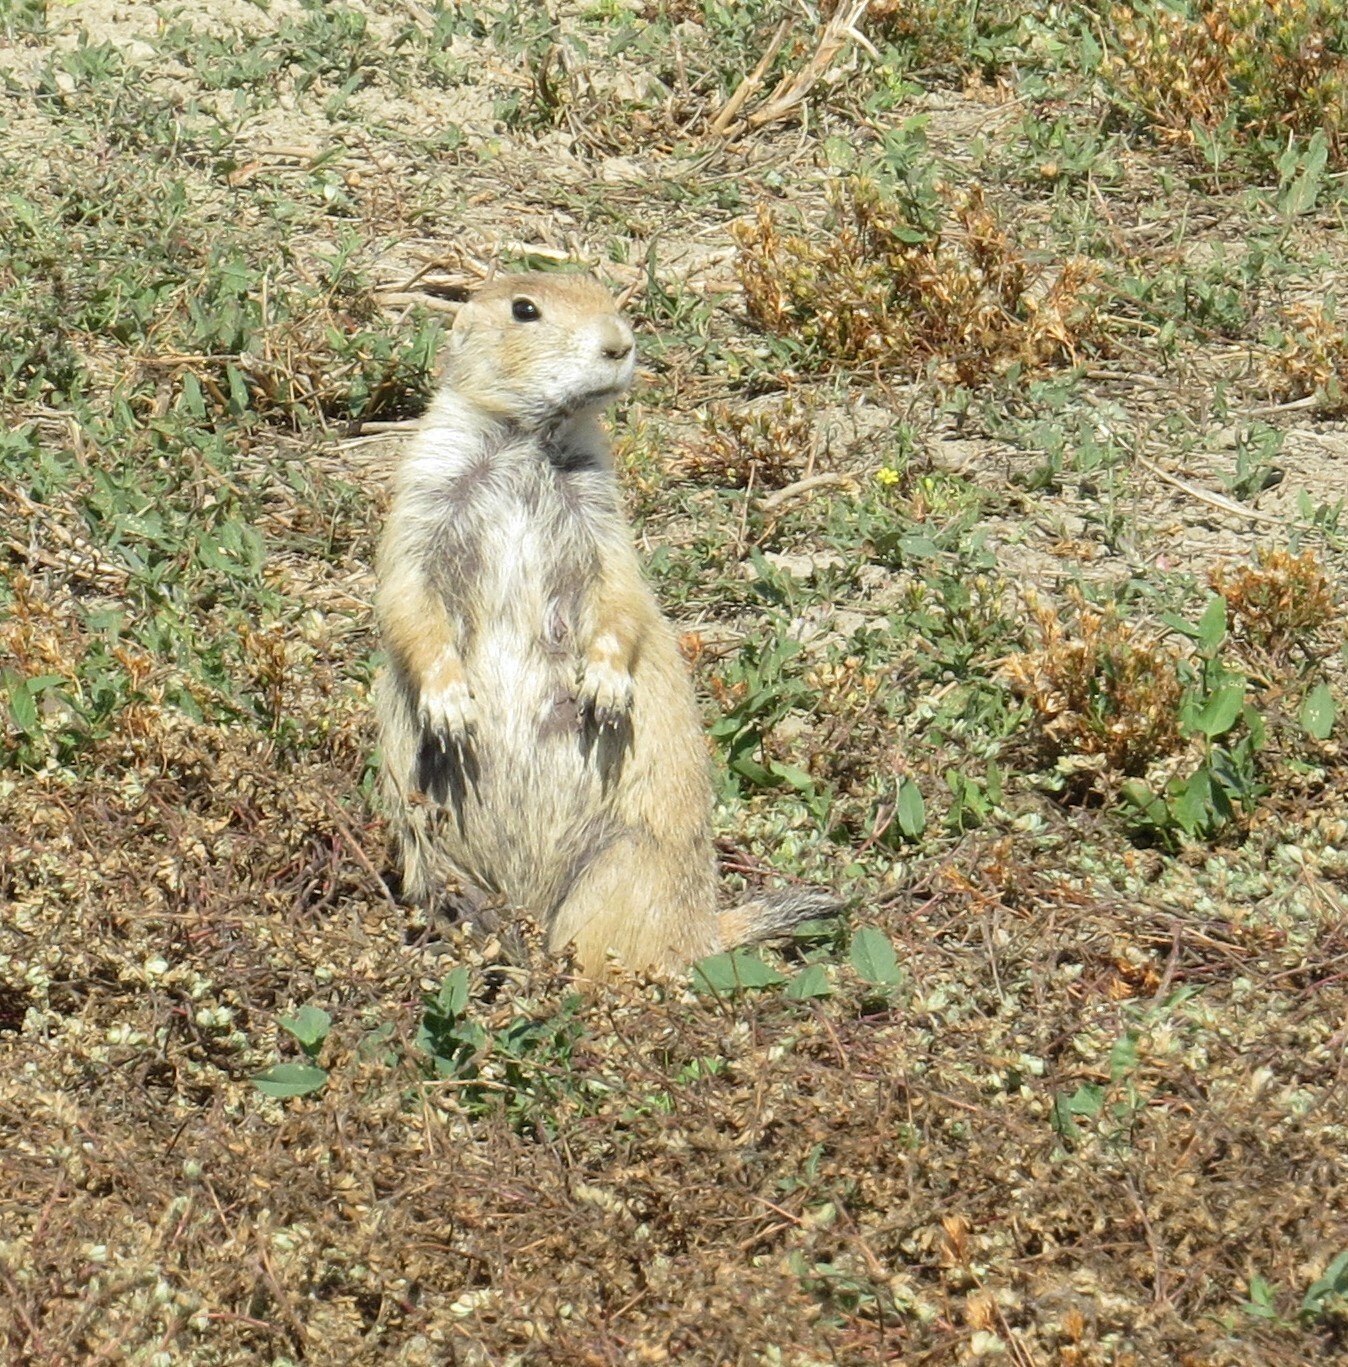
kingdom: Animalia
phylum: Chordata
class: Mammalia
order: Rodentia
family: Sciuridae
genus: Cynomys
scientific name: Cynomys ludovicianus
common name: Black-tailed prairie dog
